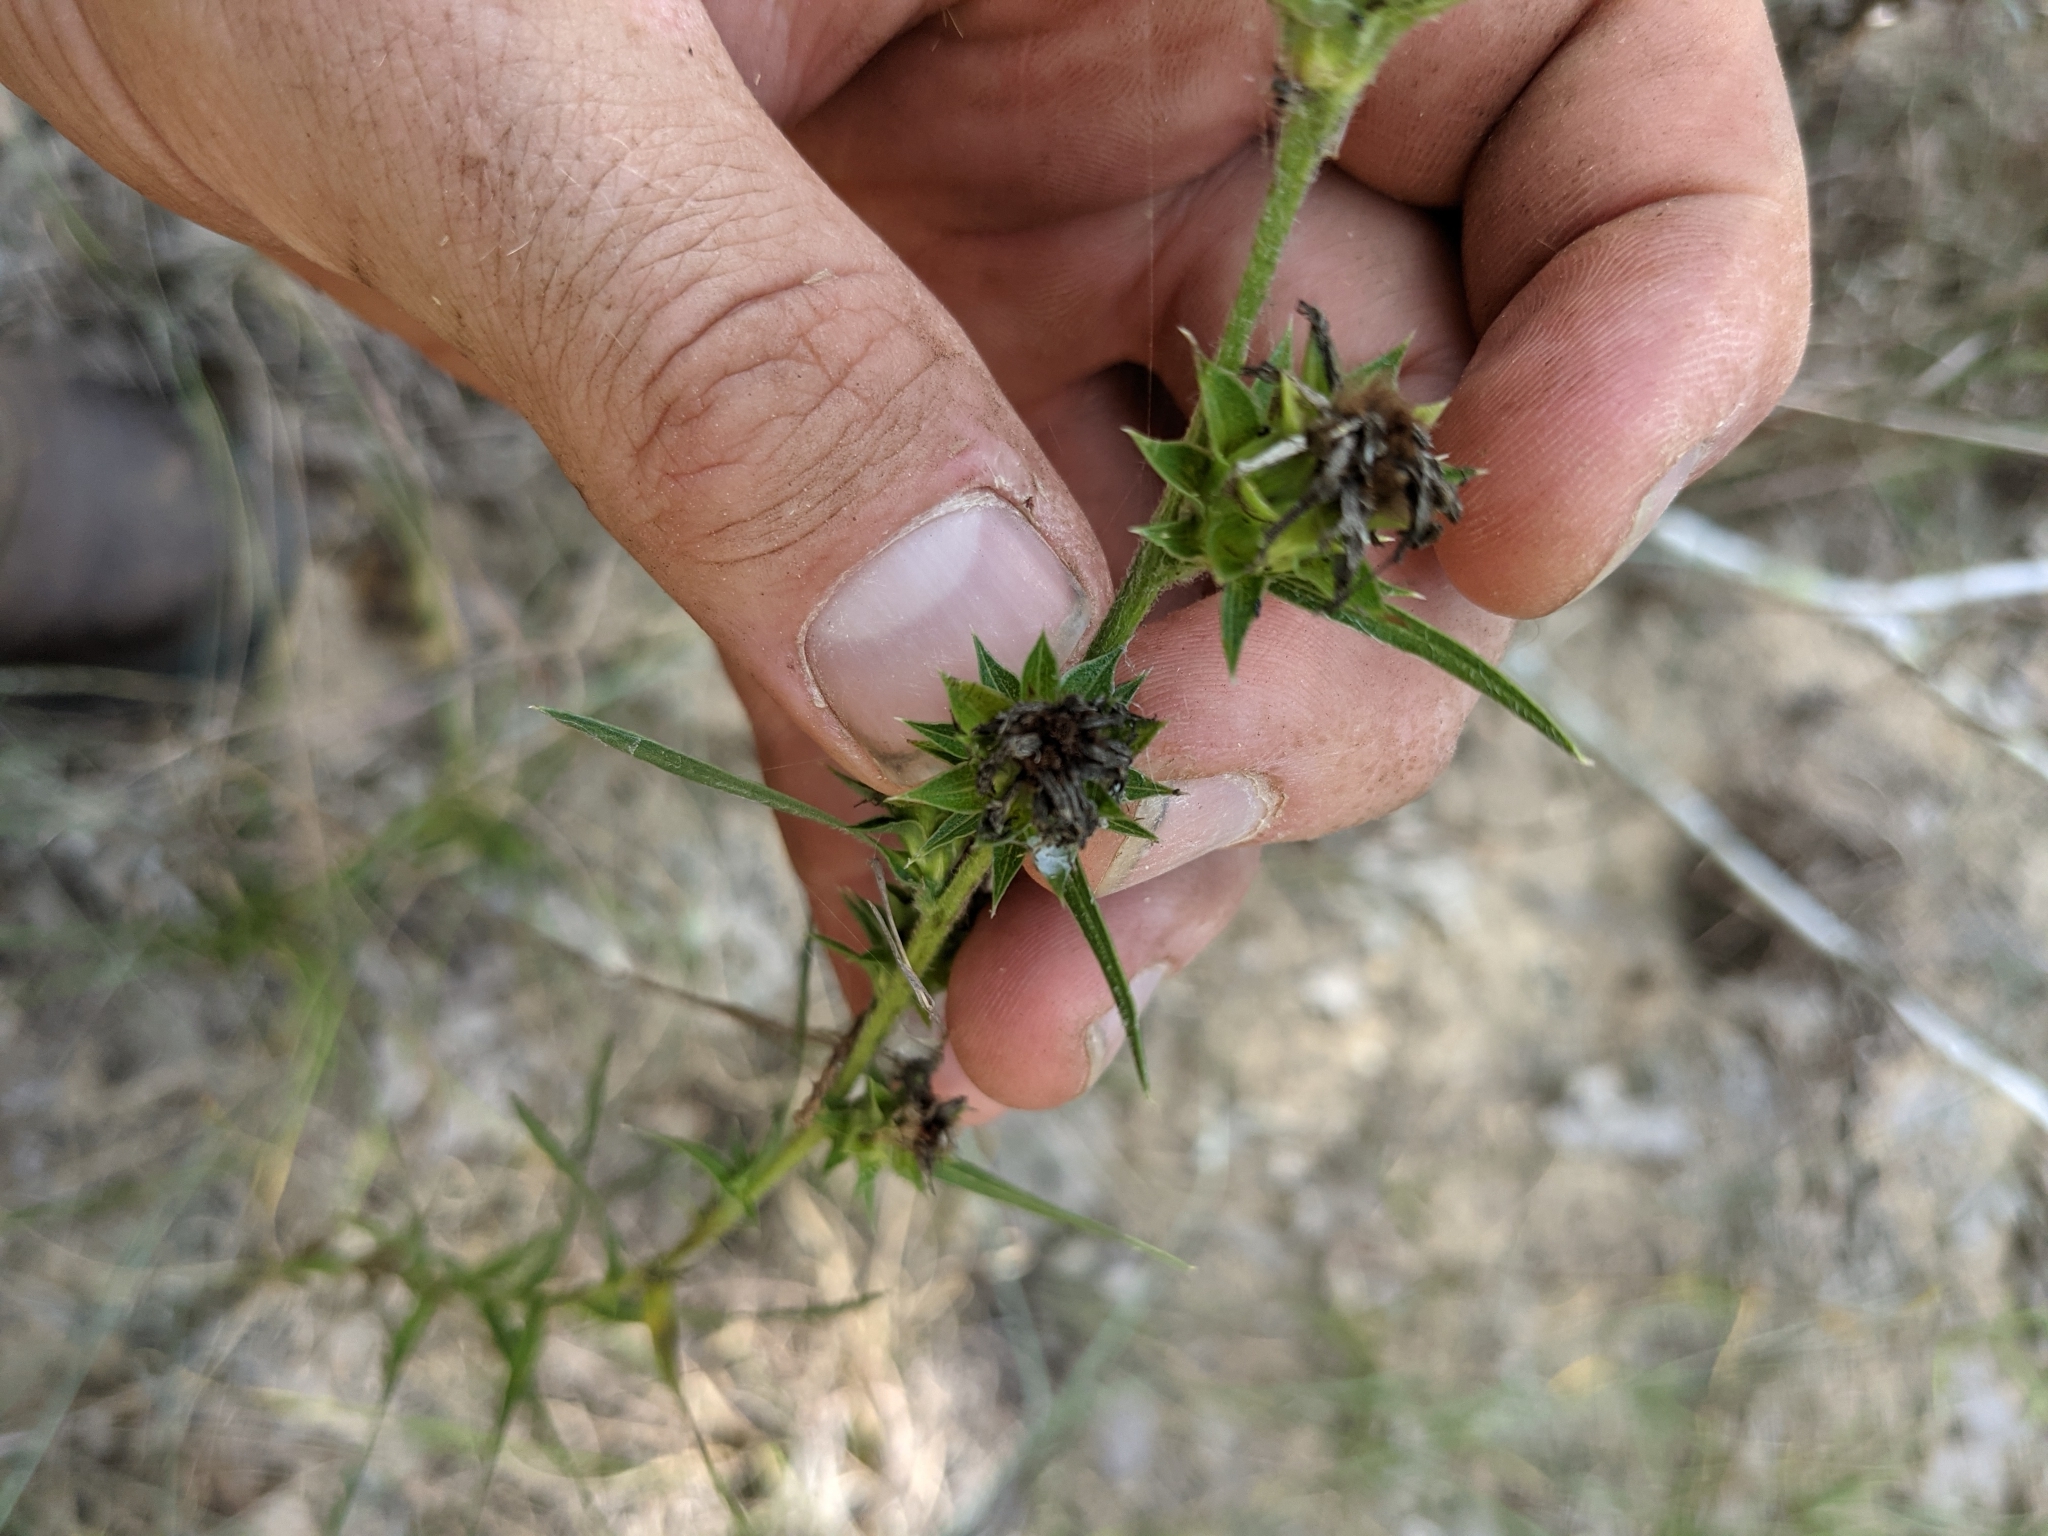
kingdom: Plantae
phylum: Tracheophyta
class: Magnoliopsida
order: Asterales
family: Asteraceae
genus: Liatris
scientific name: Liatris squarrosa
